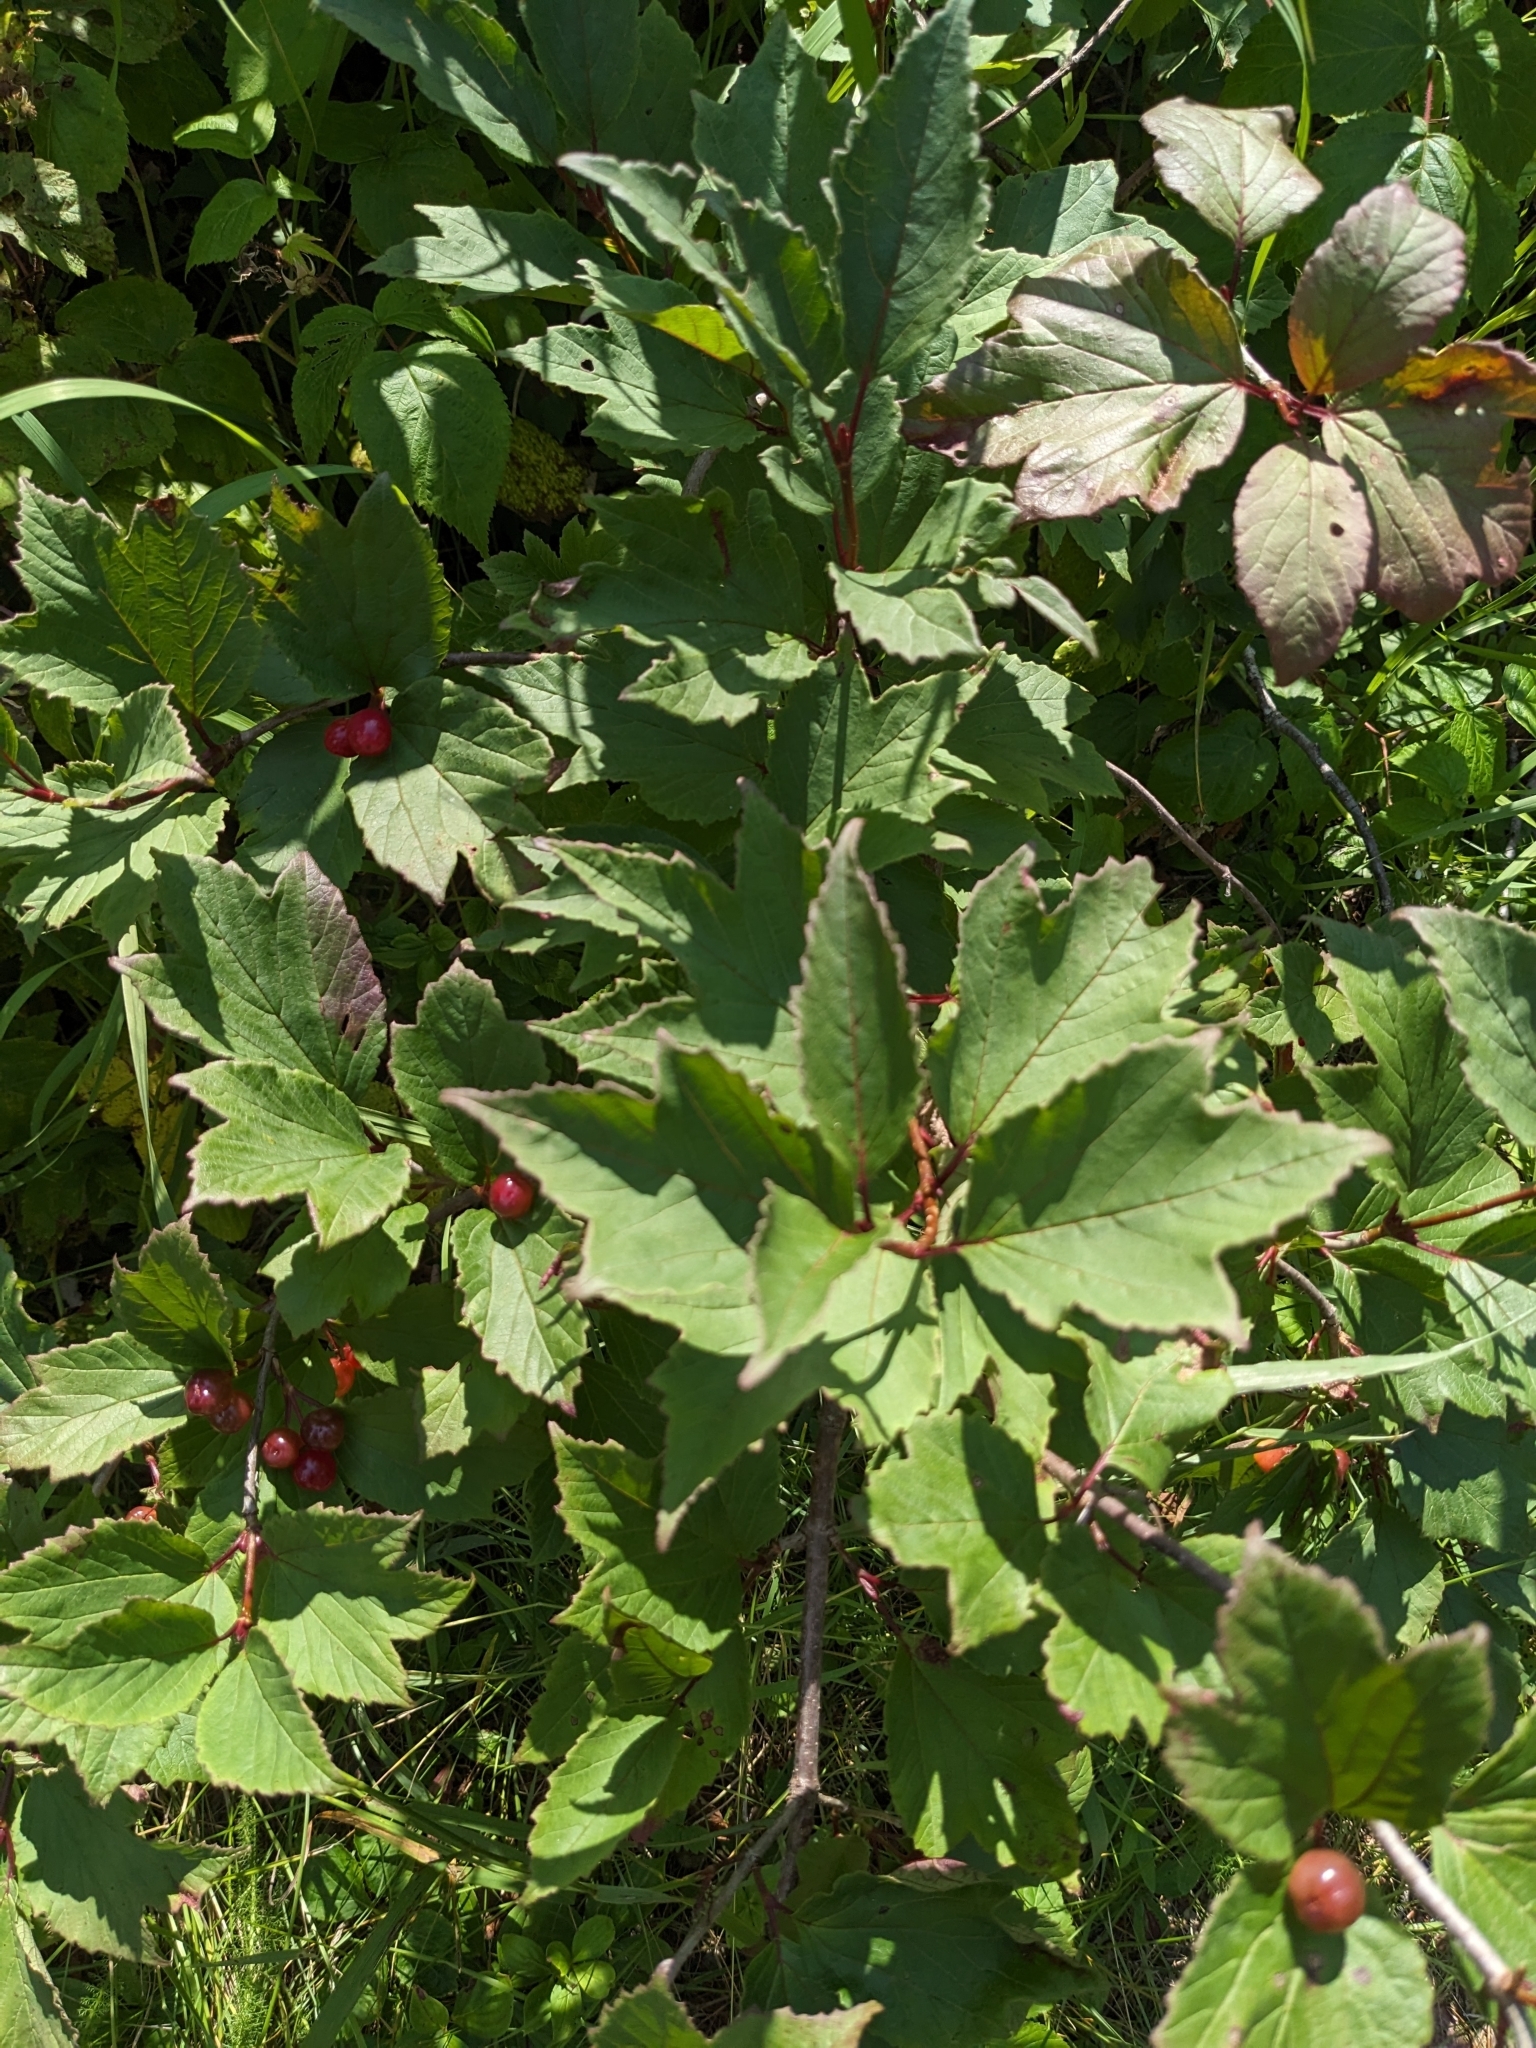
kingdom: Plantae
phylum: Tracheophyta
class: Magnoliopsida
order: Dipsacales
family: Viburnaceae
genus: Viburnum
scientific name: Viburnum edule
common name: Mooseberry
